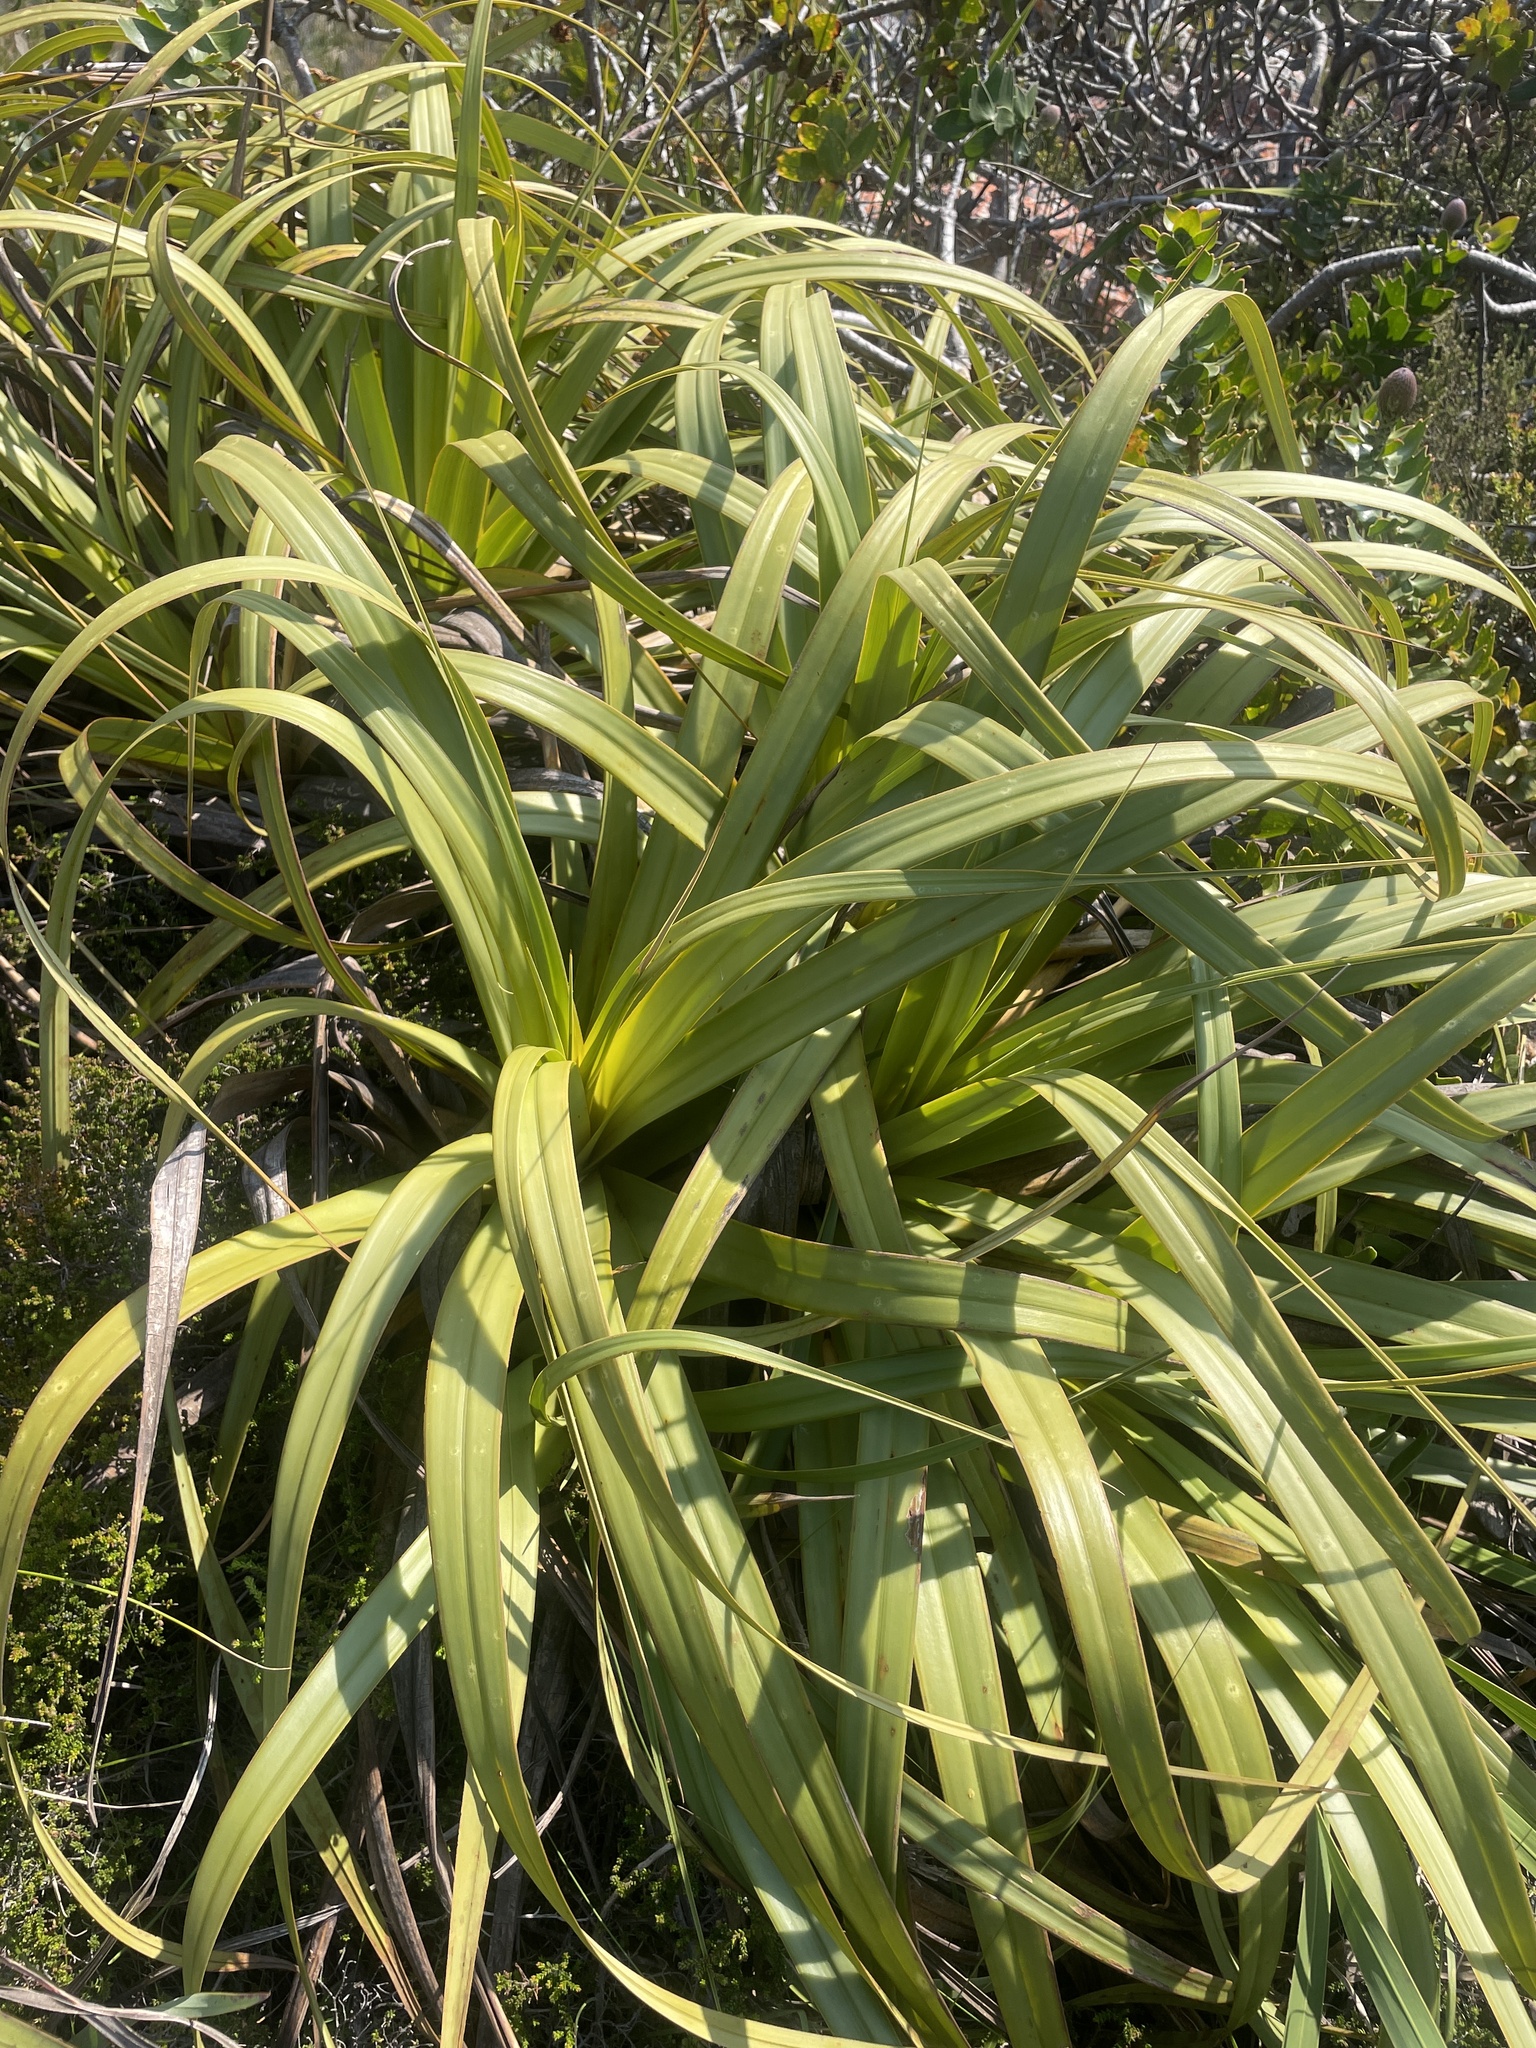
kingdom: Plantae
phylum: Tracheophyta
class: Liliopsida
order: Poales
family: Cyperaceae
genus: Tetraria
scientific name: Tetraria thermalis
